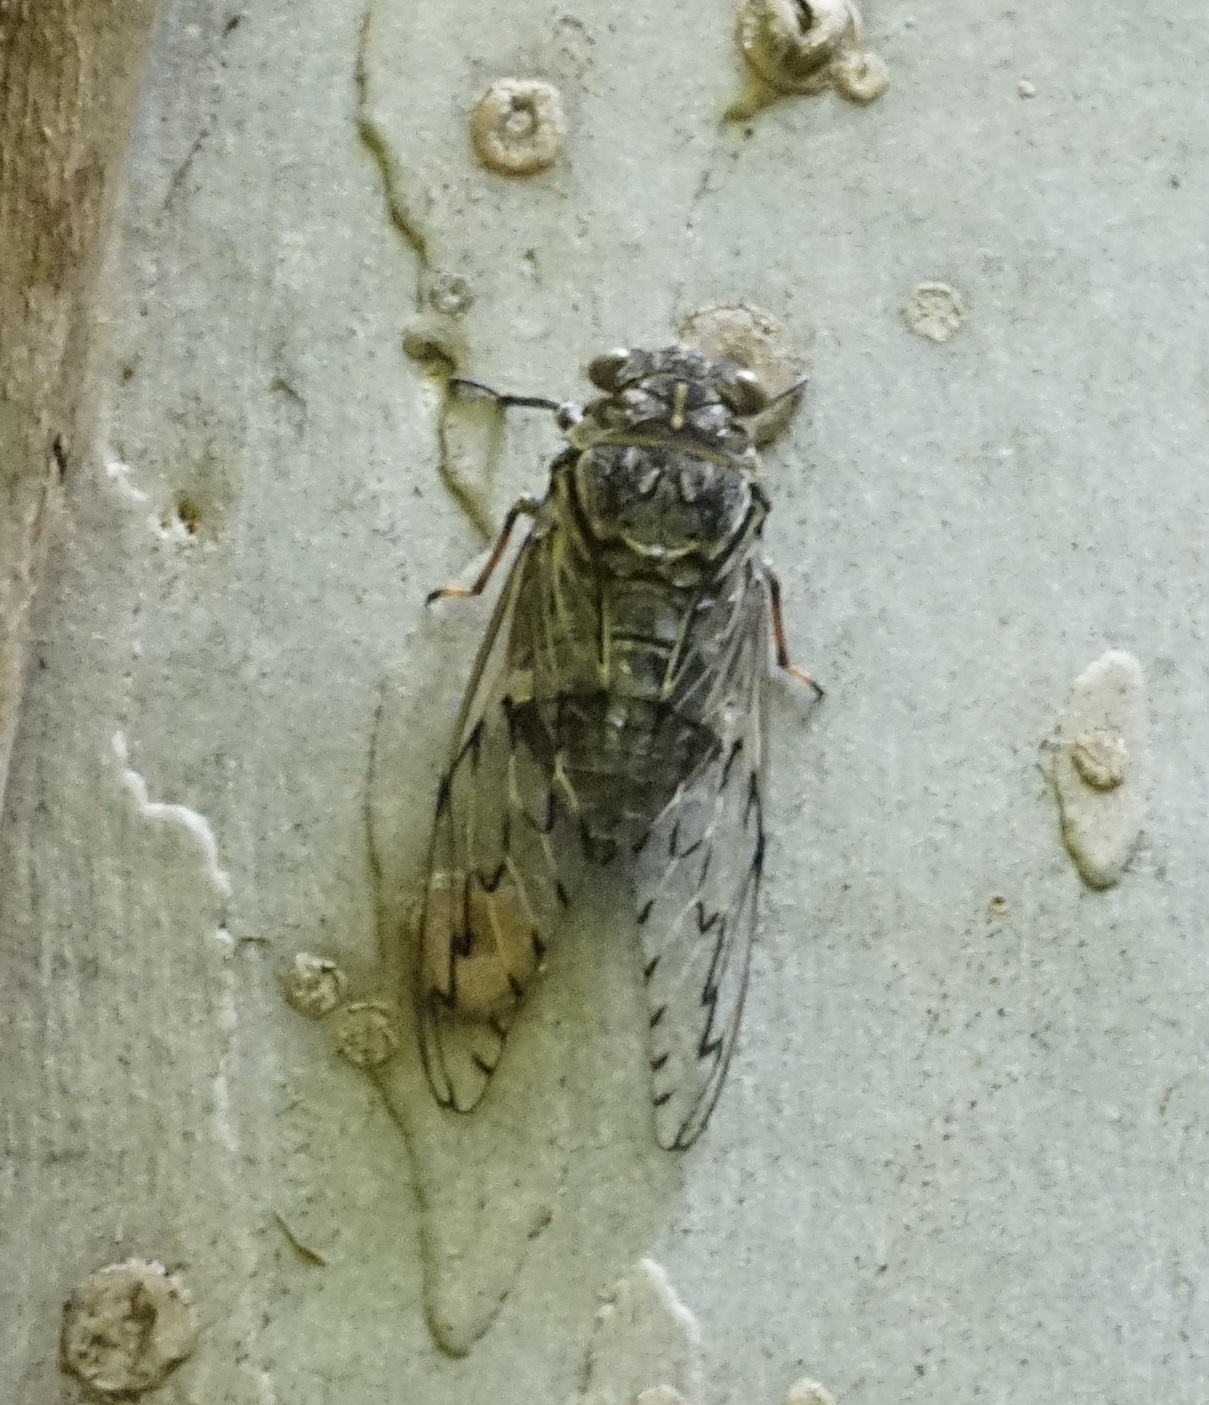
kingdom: Animalia
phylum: Arthropoda
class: Insecta
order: Hemiptera
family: Cicadidae
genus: Henicopsaltria
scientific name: Henicopsaltria eydouxii
